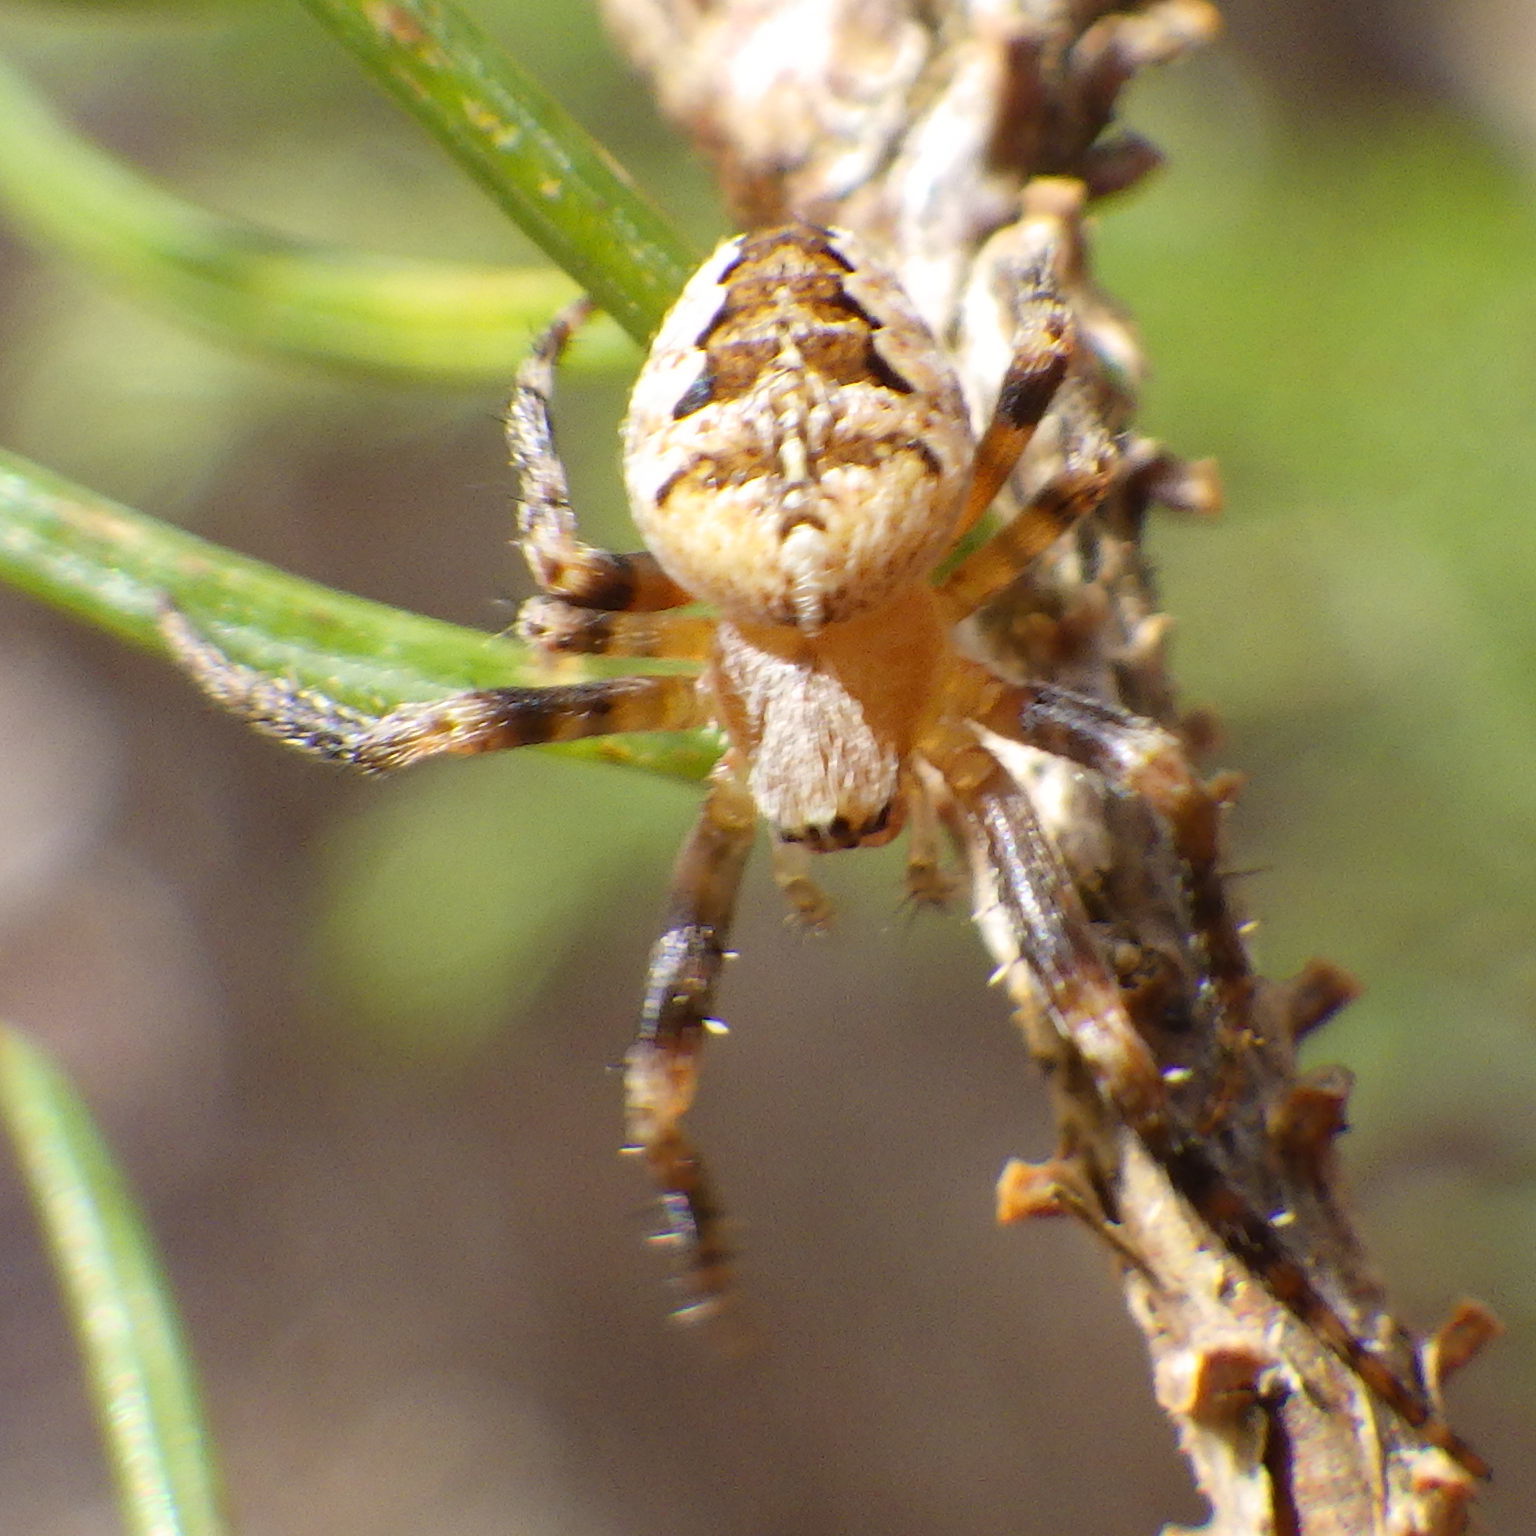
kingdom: Animalia
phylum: Arthropoda
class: Arachnida
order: Araneae
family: Araneidae
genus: Araneus
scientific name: Araneus diadematus
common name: Cross orbweaver
